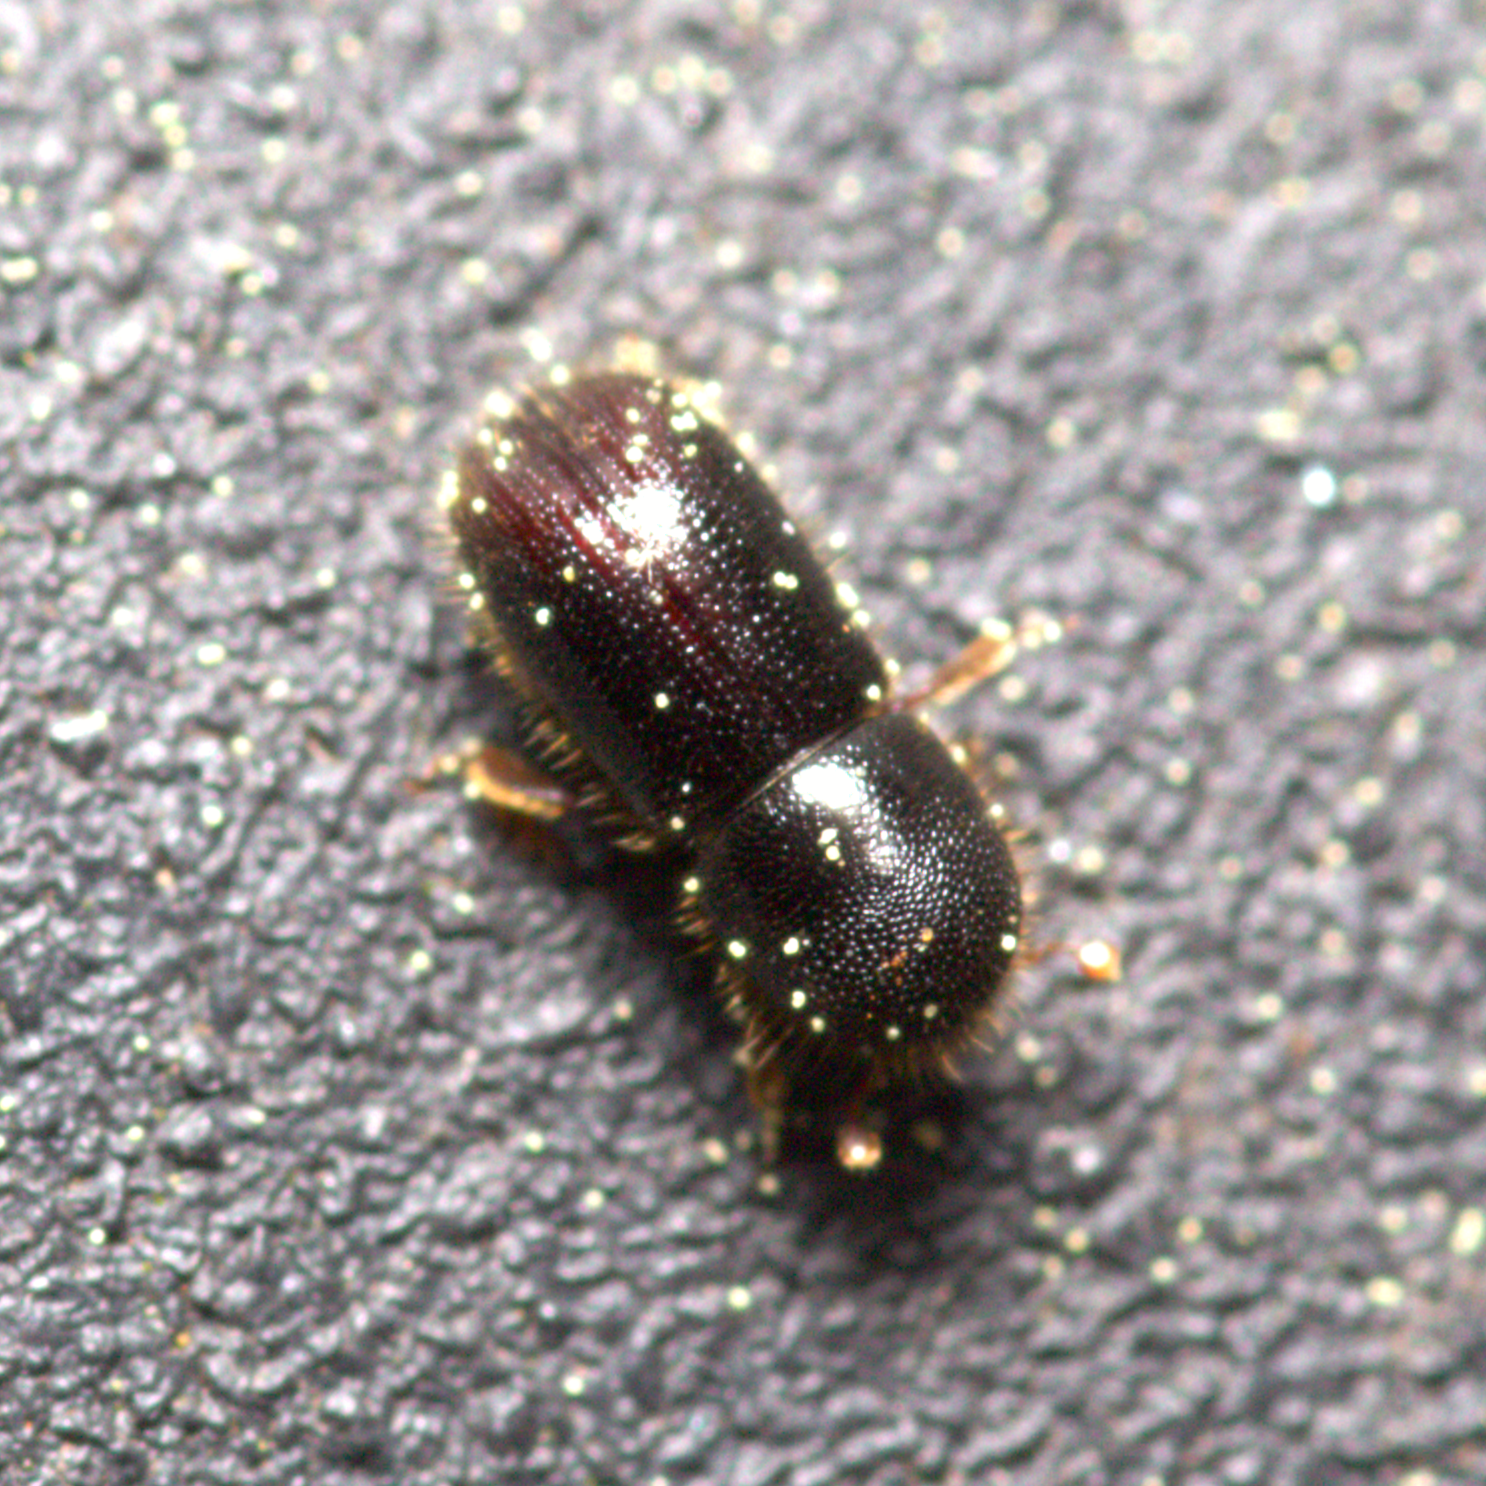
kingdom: Animalia
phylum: Arthropoda
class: Insecta
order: Coleoptera
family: Curculionidae
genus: Xyleborus
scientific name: Xyleborus atratus
